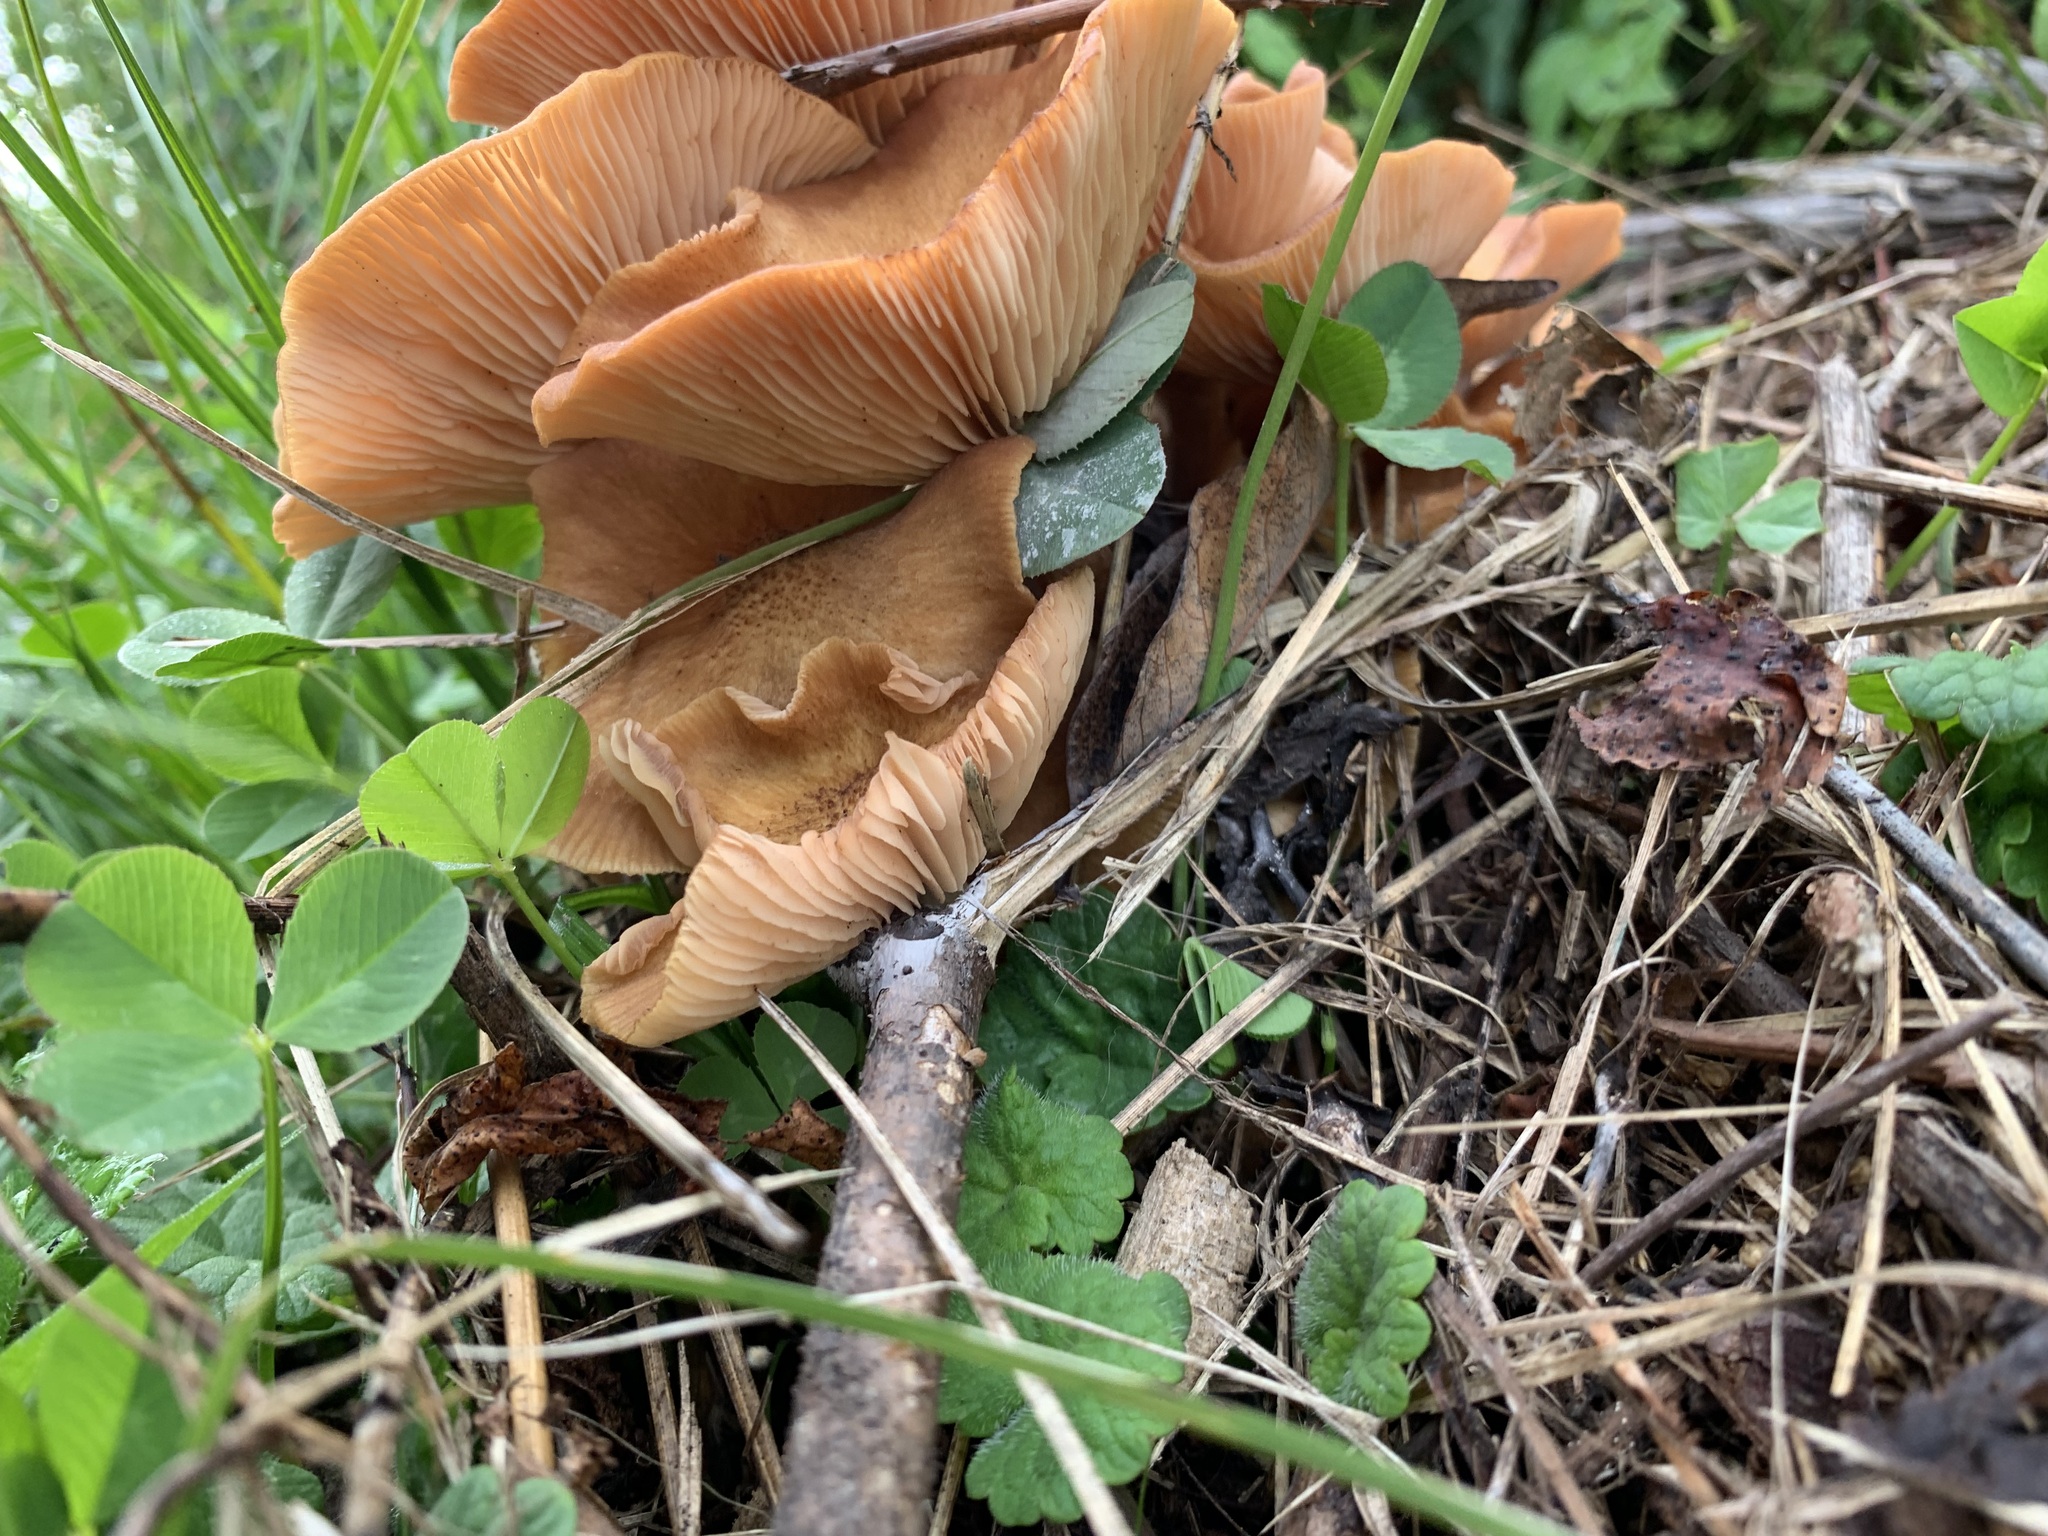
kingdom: Fungi
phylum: Basidiomycota
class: Agaricomycetes
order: Agaricales
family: Physalacriaceae
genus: Desarmillaria
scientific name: Desarmillaria caespitosa
